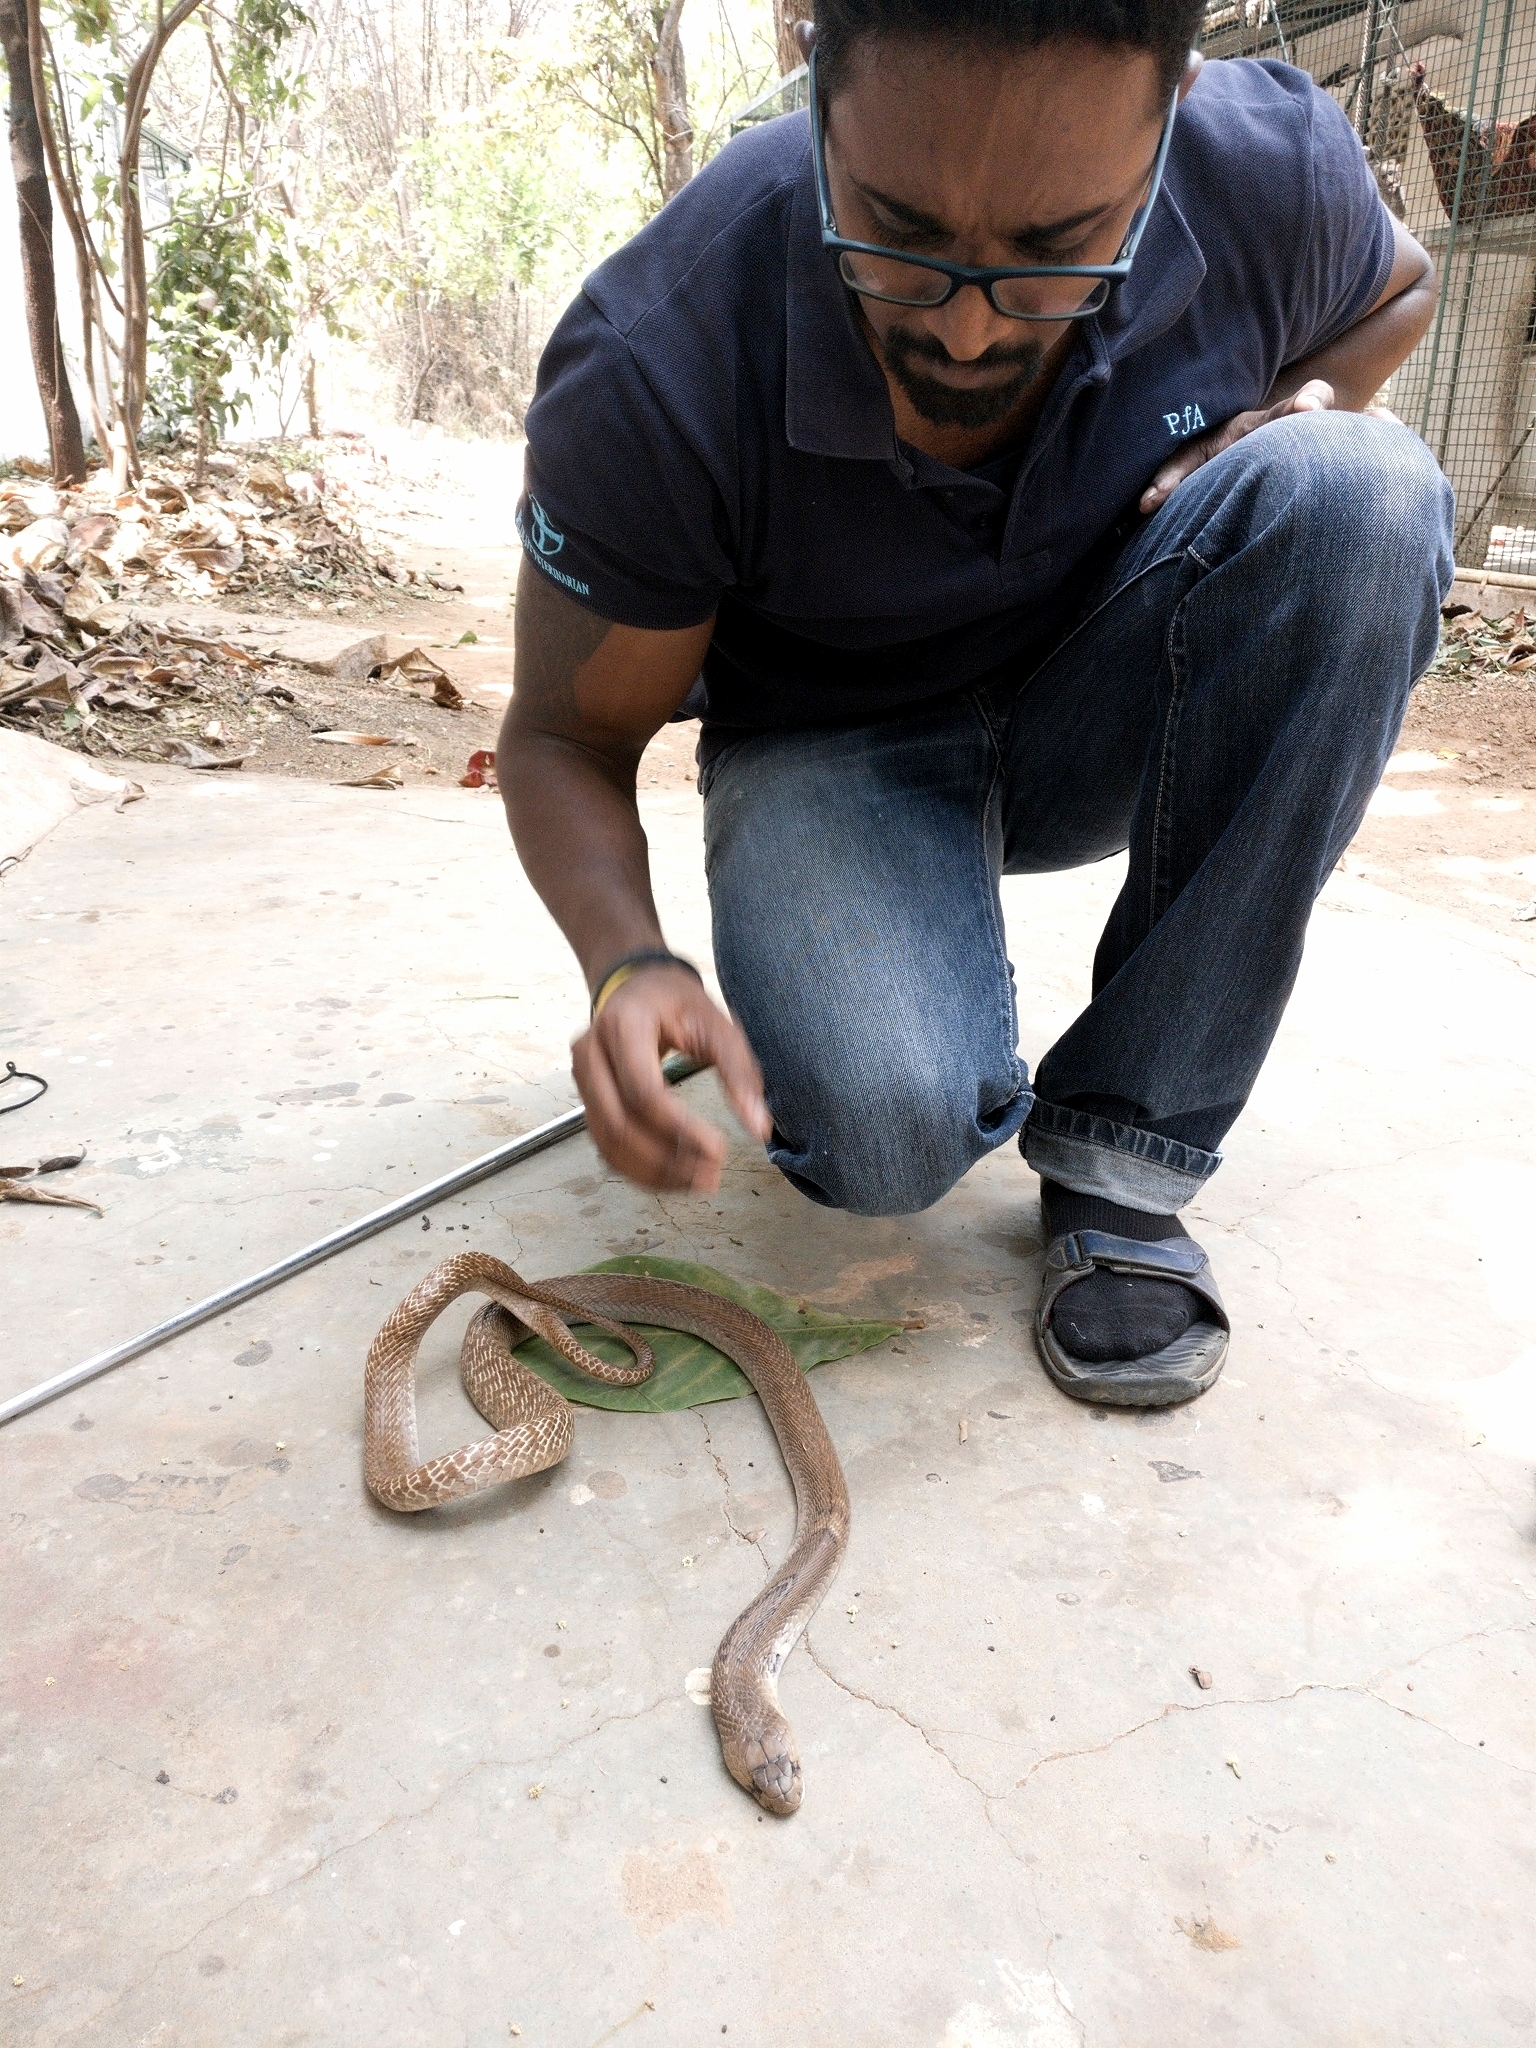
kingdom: Animalia
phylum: Chordata
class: Squamata
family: Elapidae
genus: Naja
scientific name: Naja naja
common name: Indian cobra
